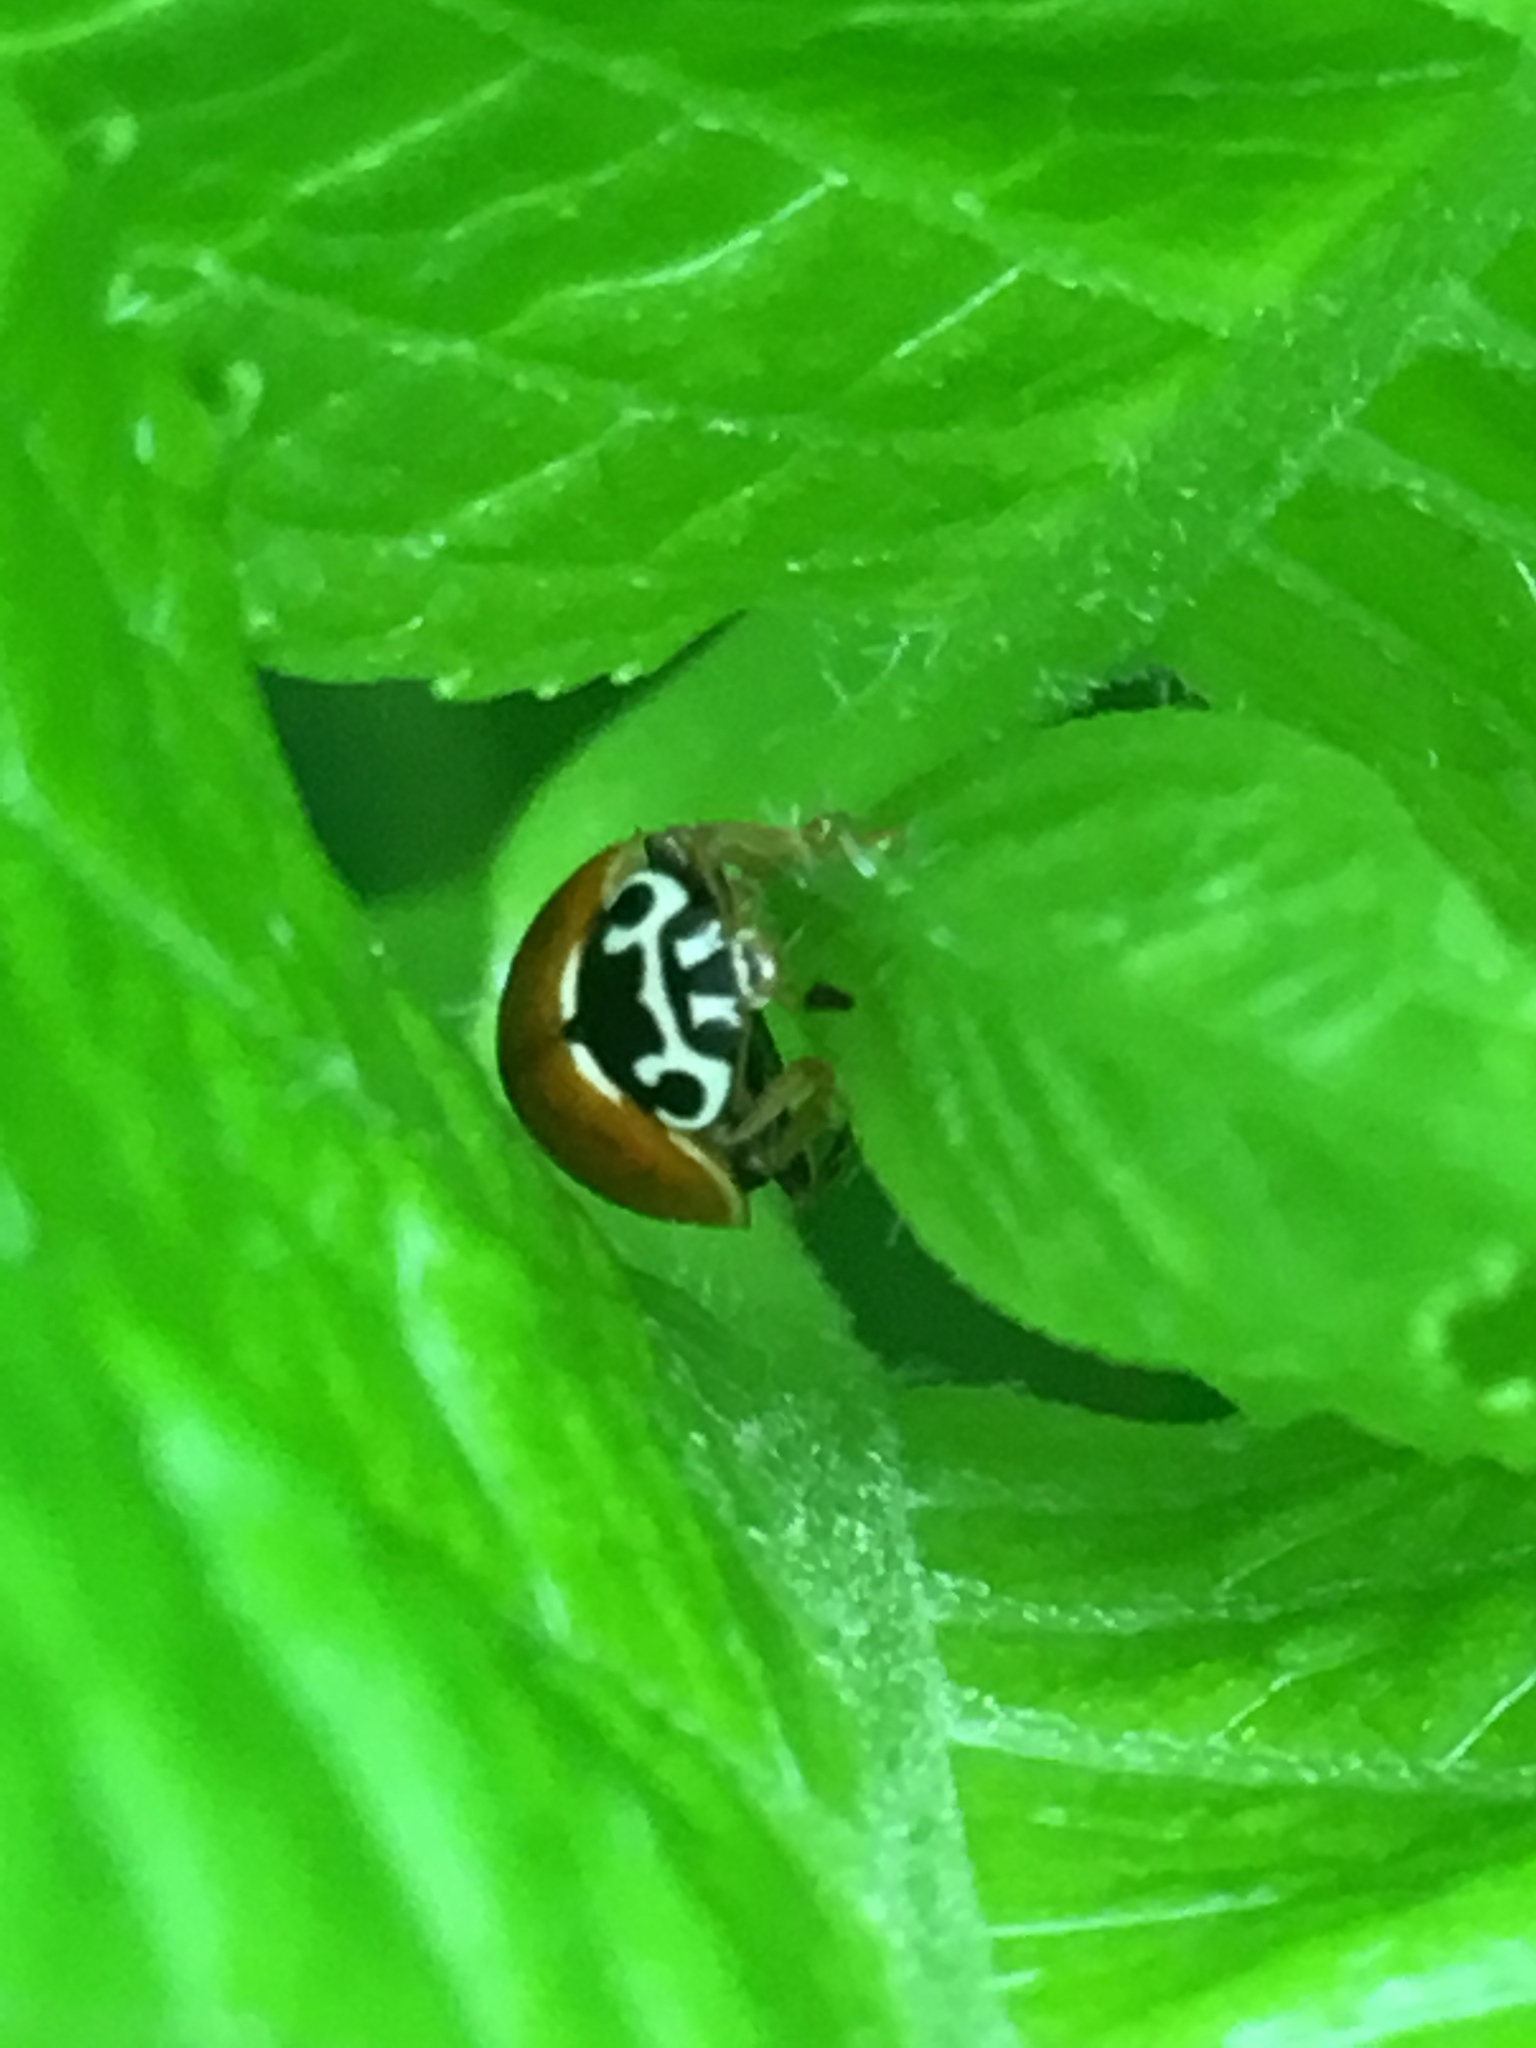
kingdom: Animalia
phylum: Arthropoda
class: Insecta
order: Coleoptera
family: Coccinellidae
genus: Cycloneda
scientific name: Cycloneda munda
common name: Polished lady beetle
